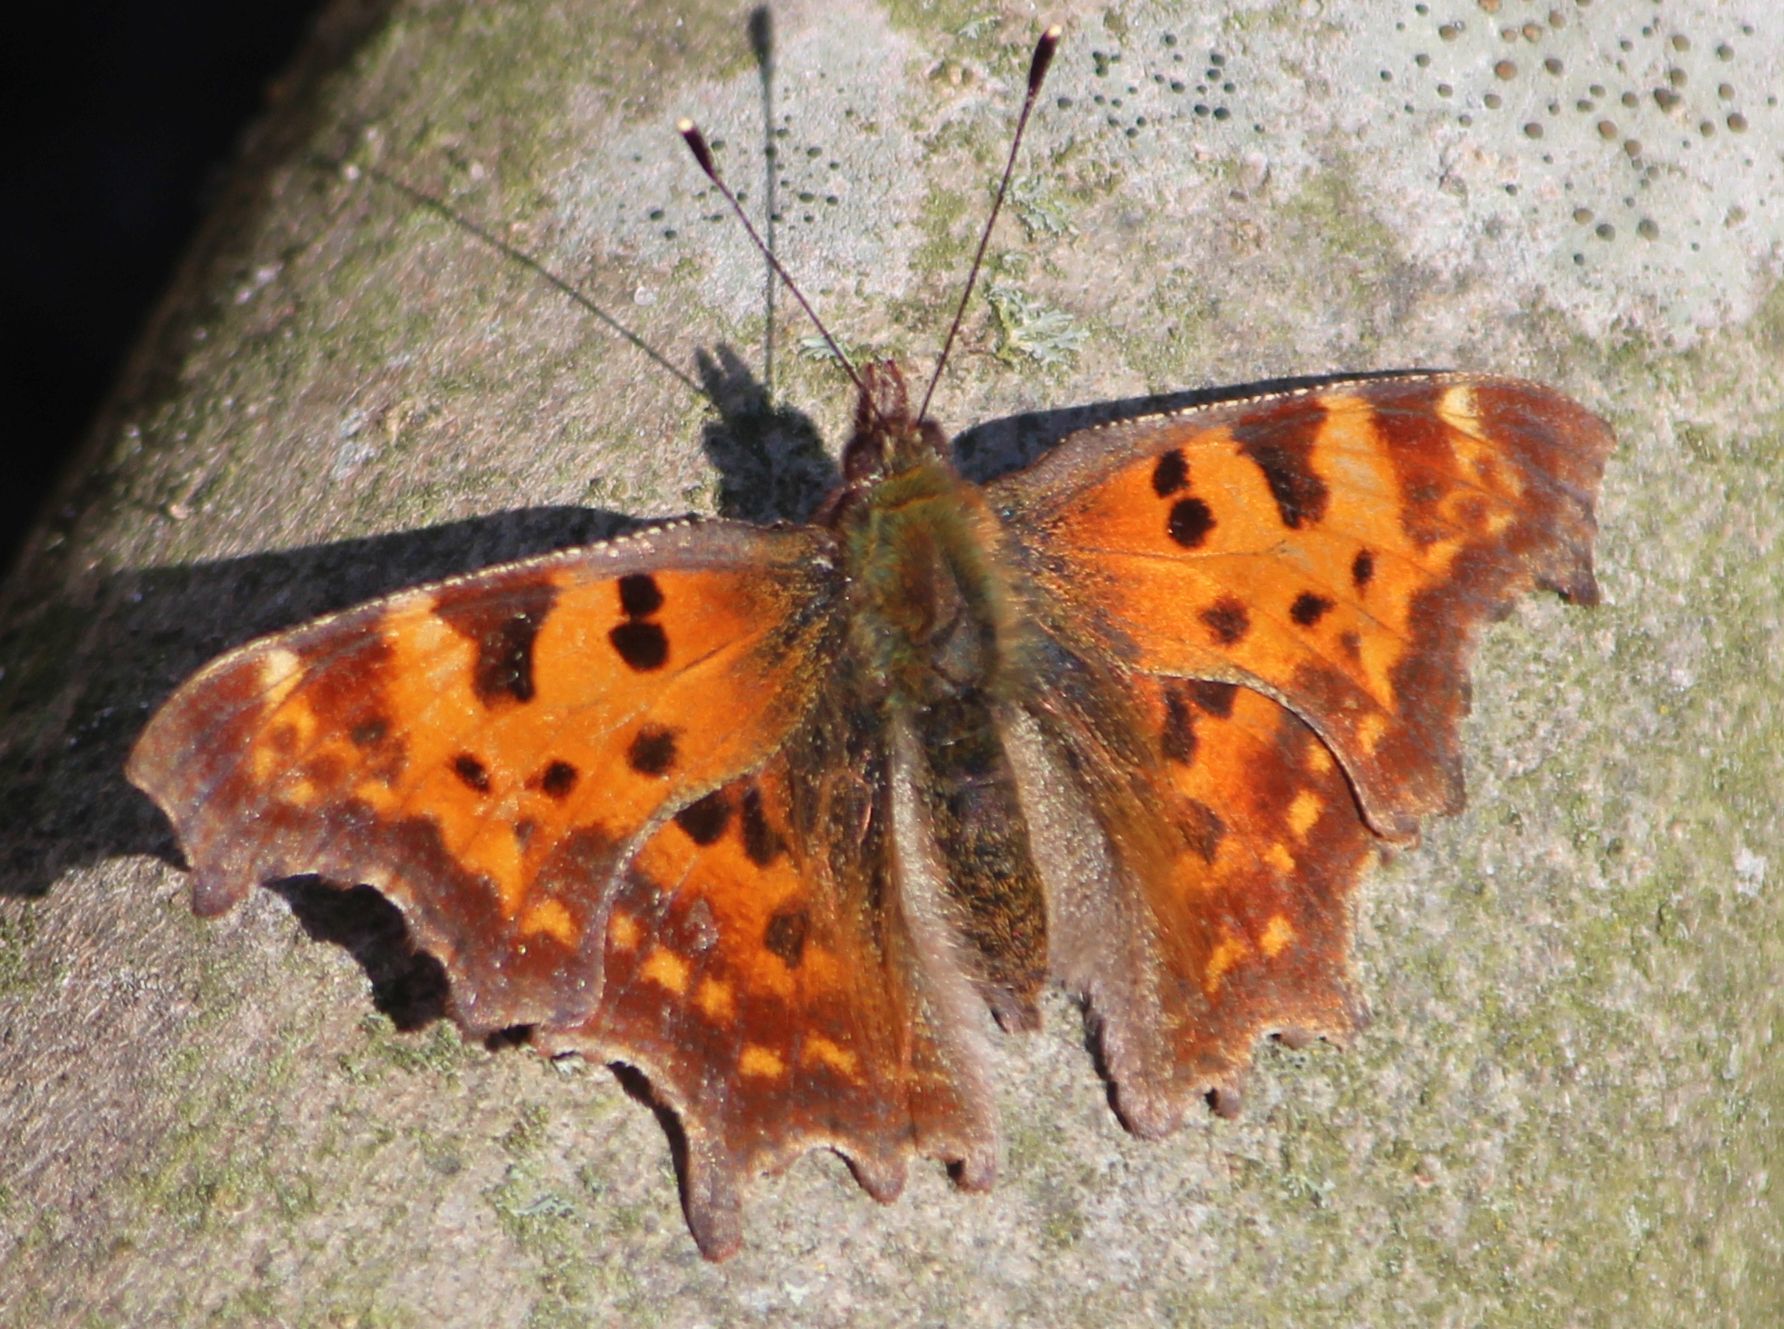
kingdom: Animalia
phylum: Arthropoda
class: Insecta
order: Lepidoptera
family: Nymphalidae
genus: Polygonia
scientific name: Polygonia c-album
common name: Comma
